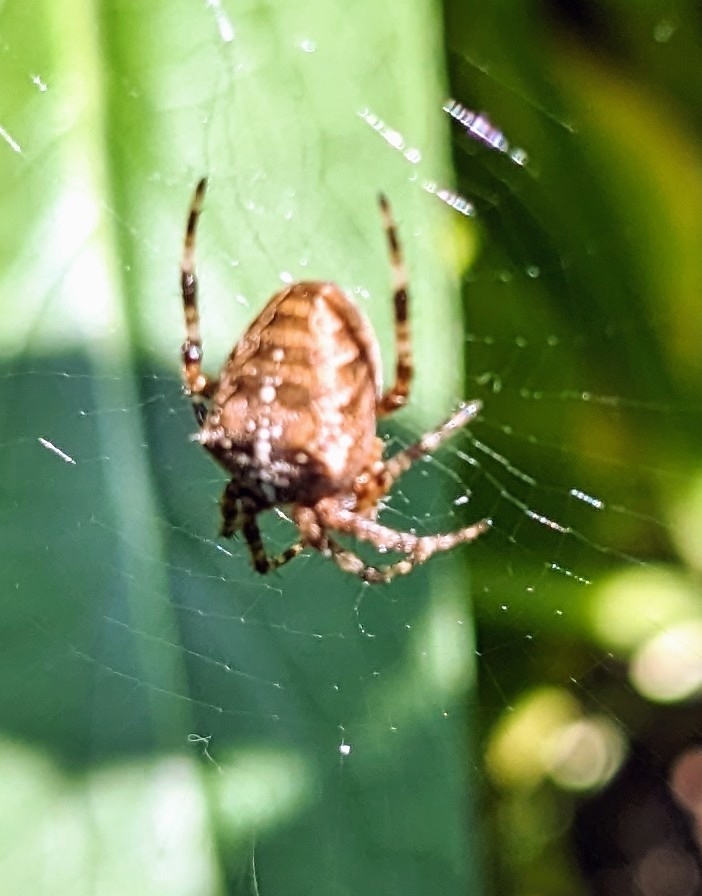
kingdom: Animalia
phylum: Arthropoda
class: Arachnida
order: Araneae
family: Araneidae
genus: Araneus
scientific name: Araneus diadematus
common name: Cross orbweaver
